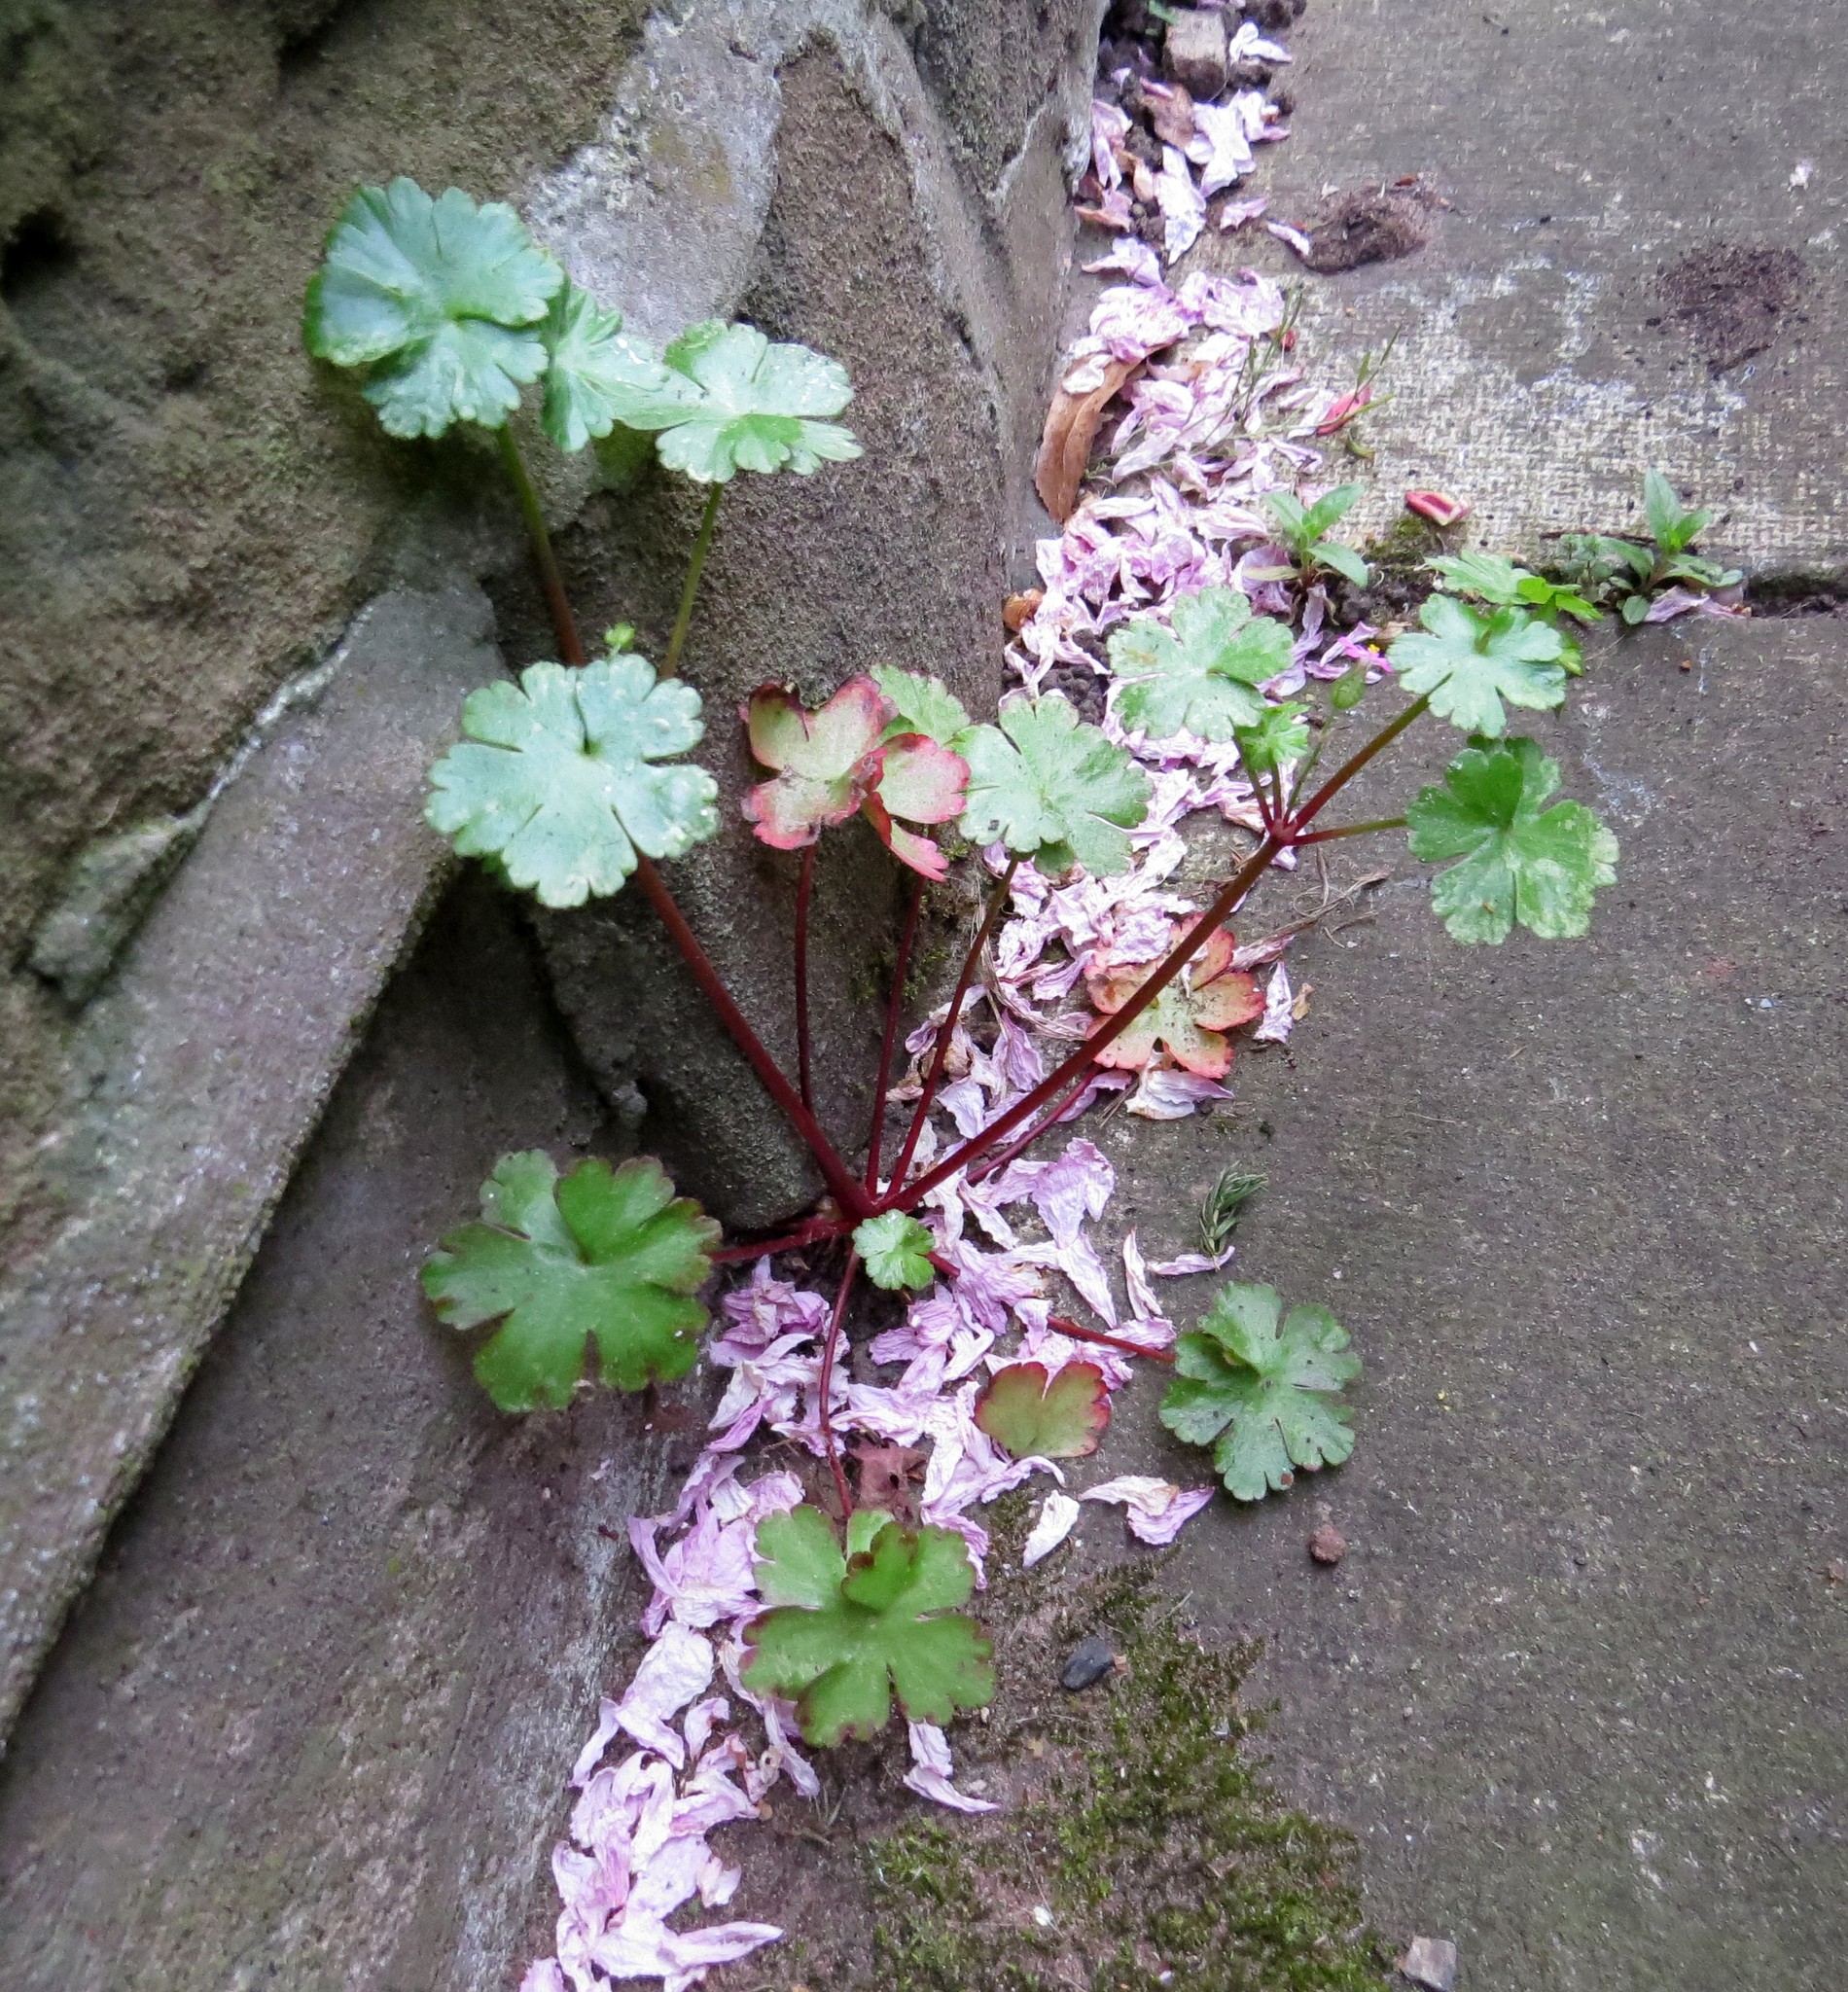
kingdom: Plantae
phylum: Tracheophyta
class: Magnoliopsida
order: Geraniales
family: Geraniaceae
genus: Geranium
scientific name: Geranium lucidum
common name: Shining crane's-bill
